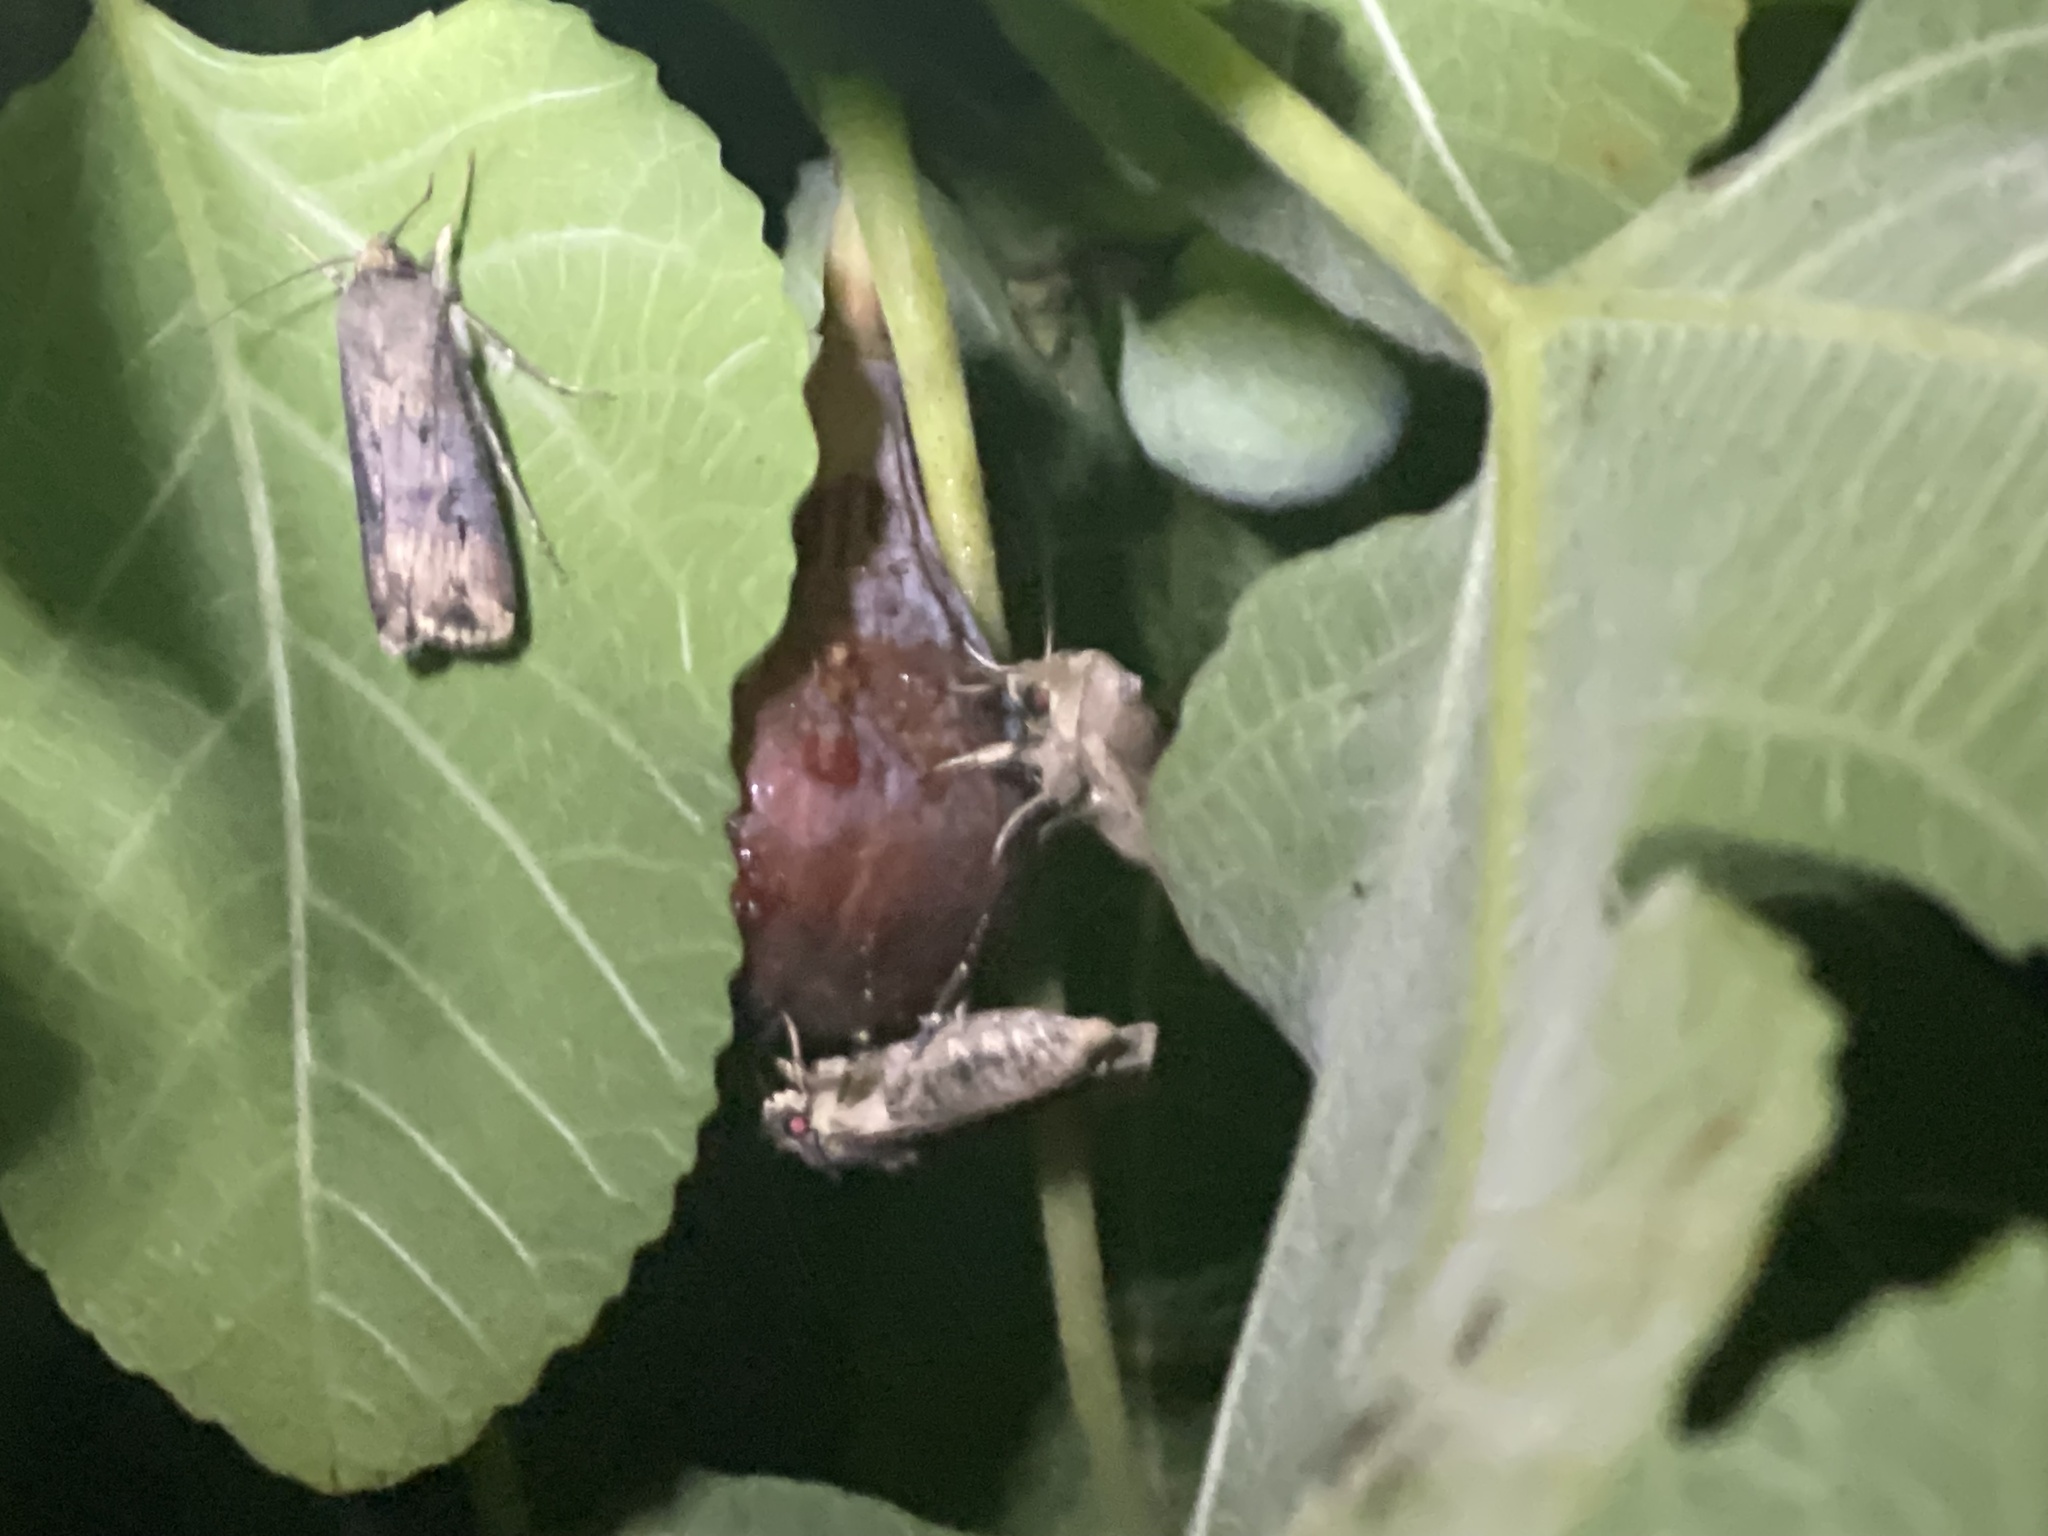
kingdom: Animalia
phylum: Arthropoda
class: Insecta
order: Lepidoptera
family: Noctuidae
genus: Agrotis
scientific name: Agrotis ipsilon
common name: Dark sword-grass
